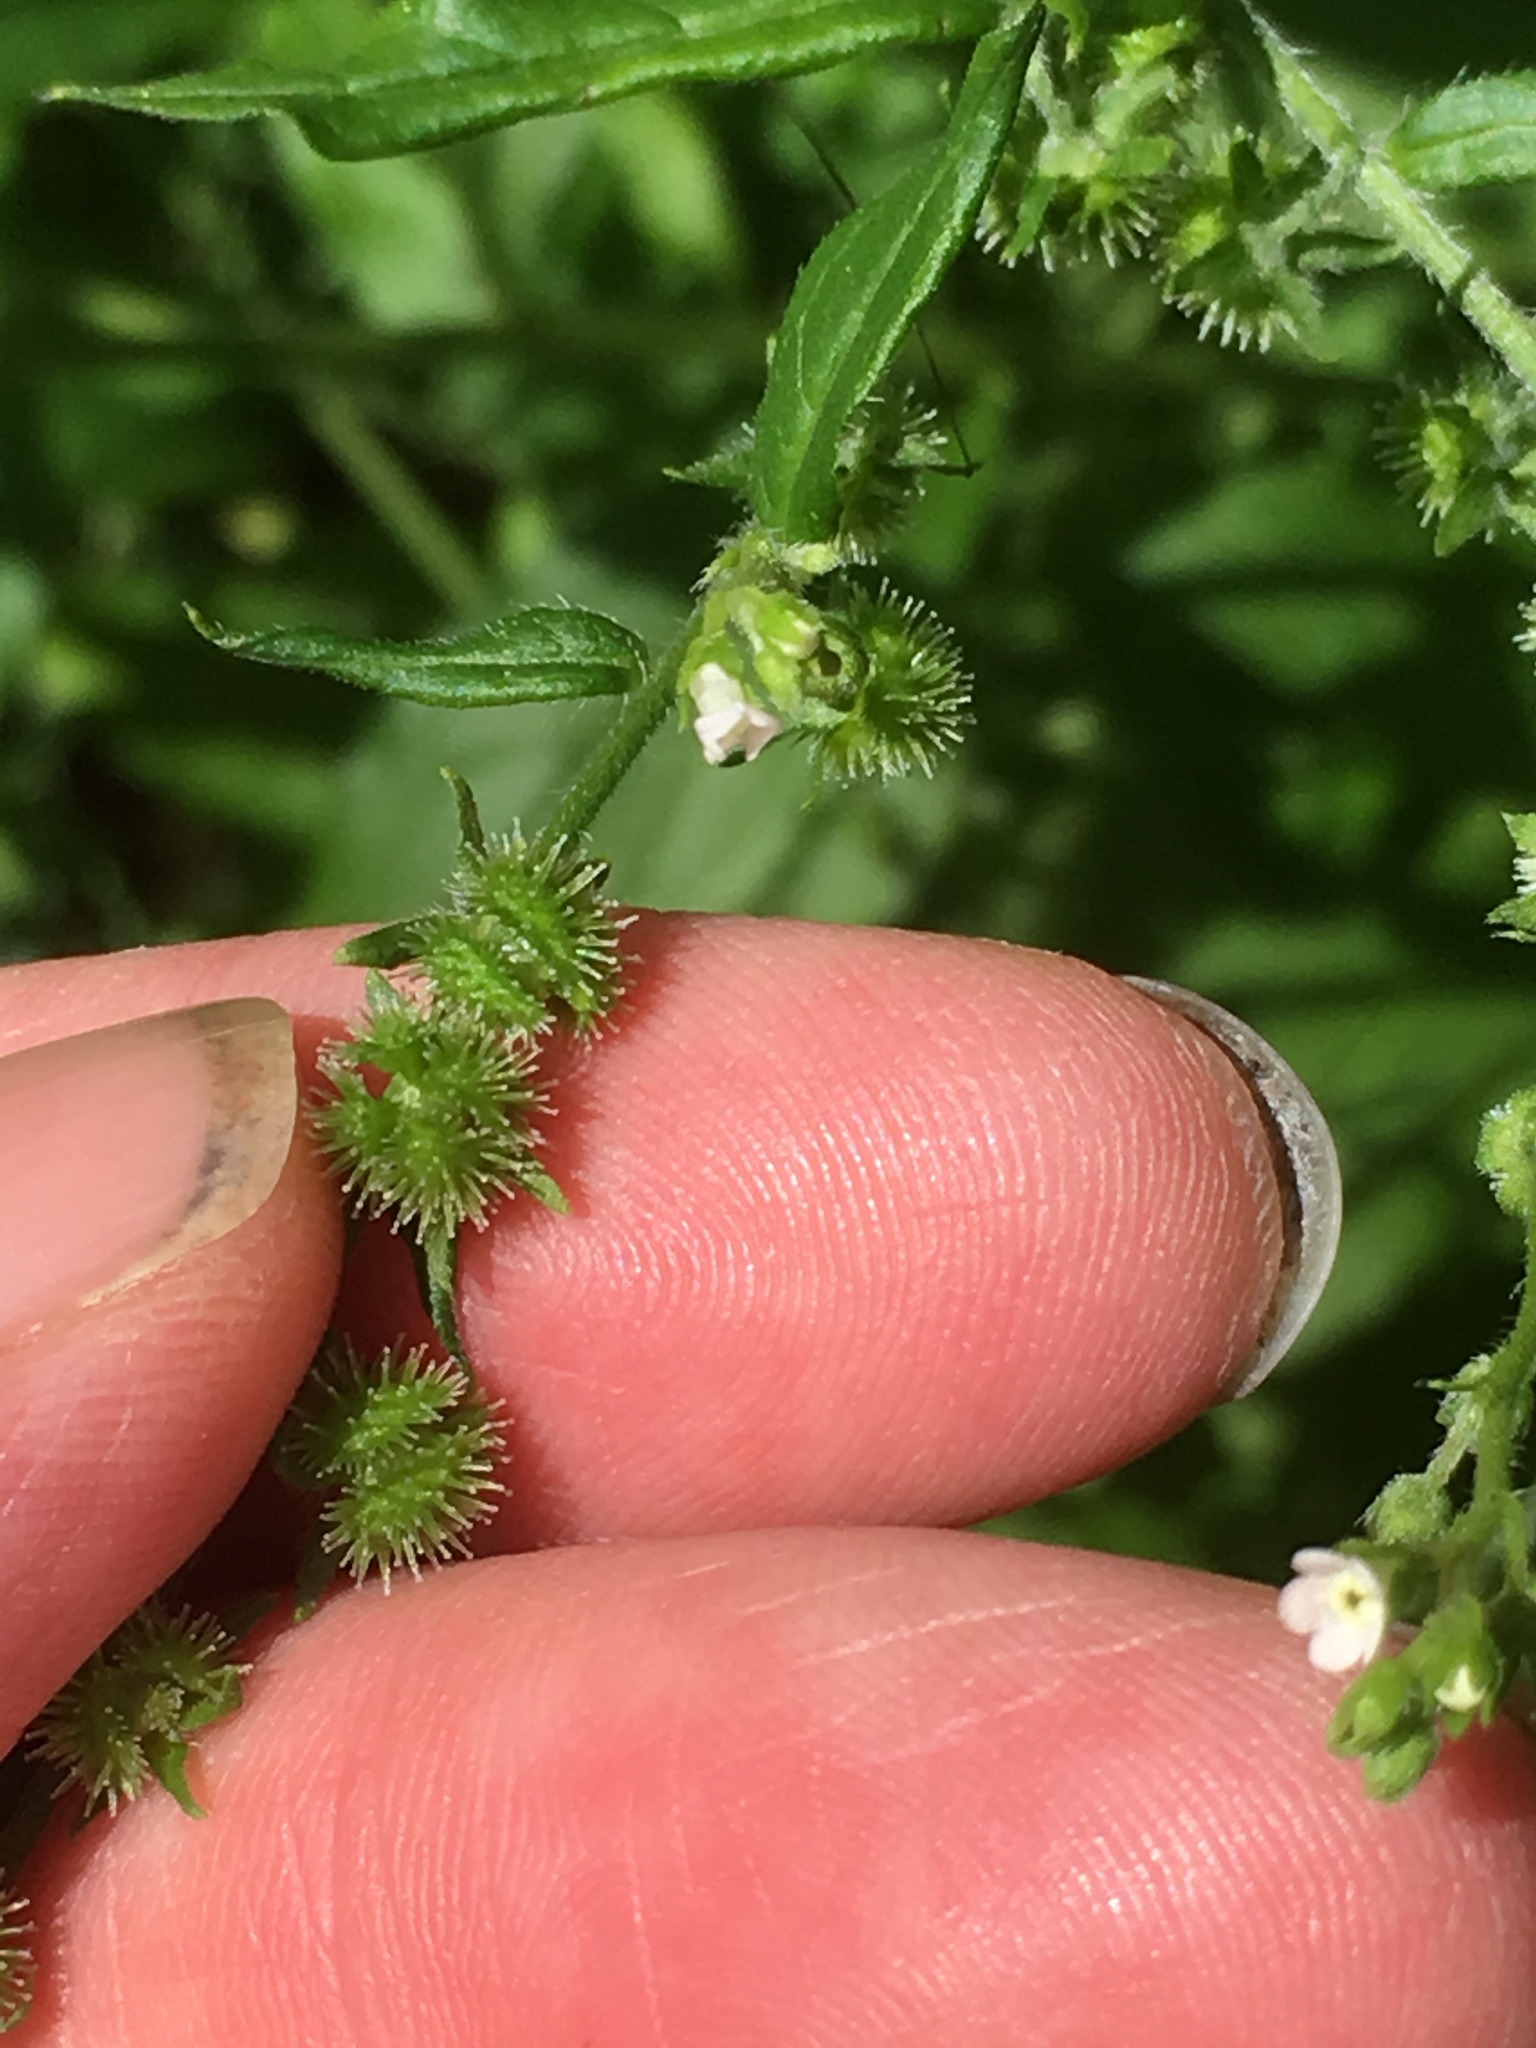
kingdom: Plantae
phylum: Tracheophyta
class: Magnoliopsida
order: Boraginales
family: Boraginaceae
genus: Hackelia
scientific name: Hackelia virginiana
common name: Beggar's-lice
